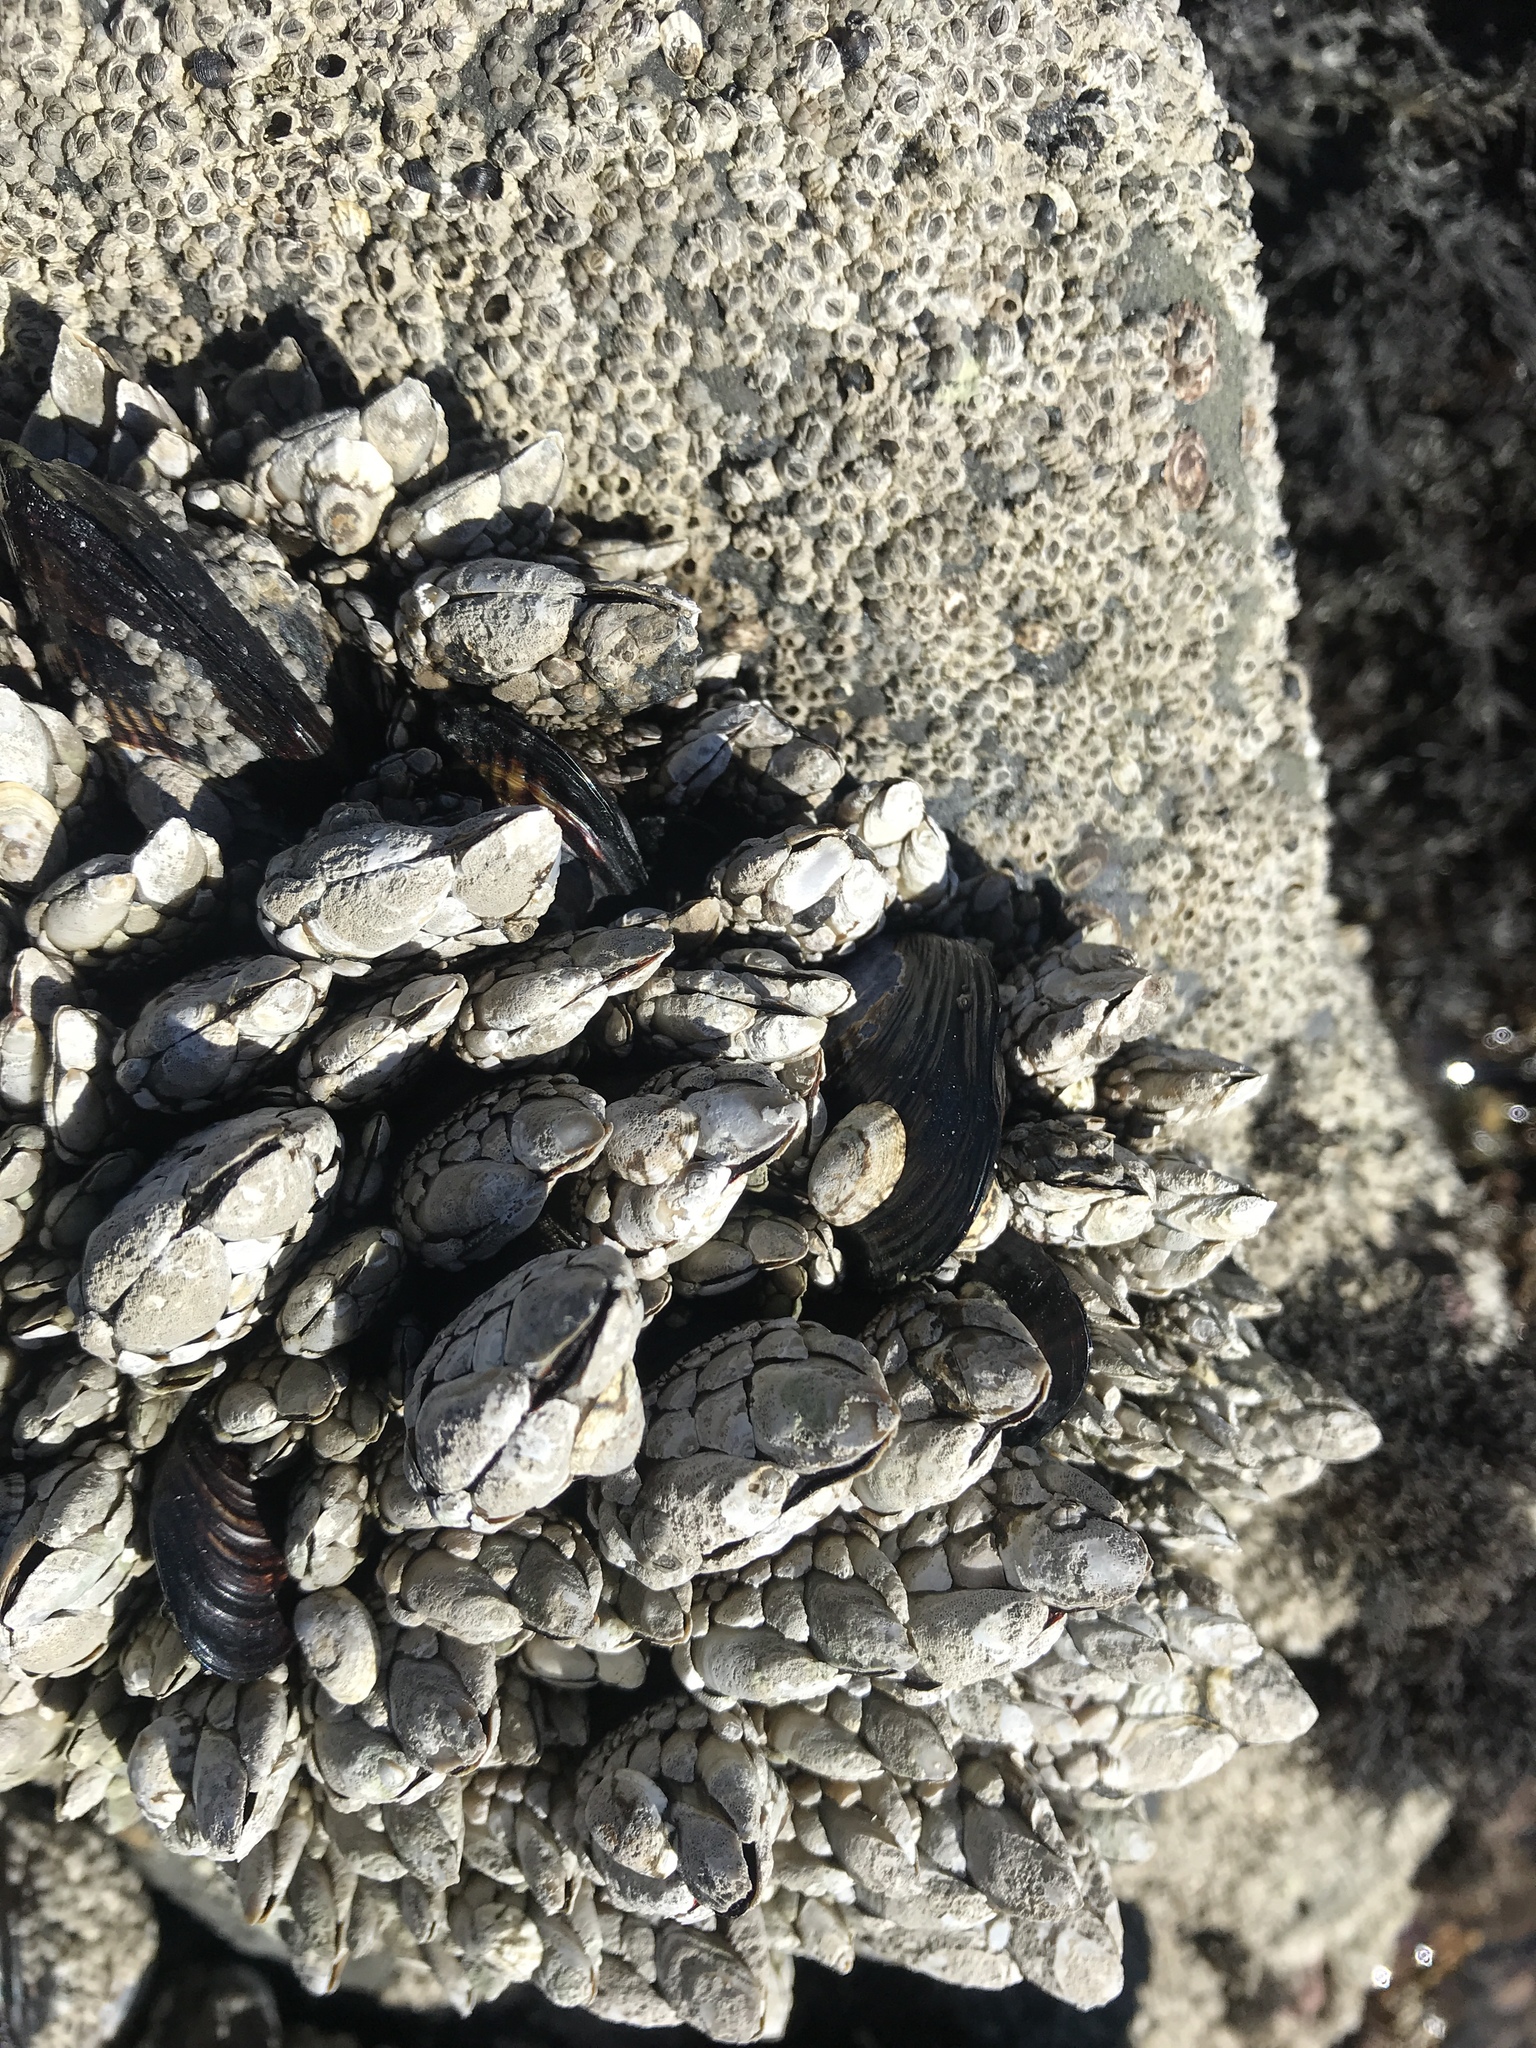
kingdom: Animalia
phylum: Arthropoda
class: Maxillopoda
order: Pedunculata
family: Pollicipedidae
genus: Pollicipes
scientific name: Pollicipes polymerus
